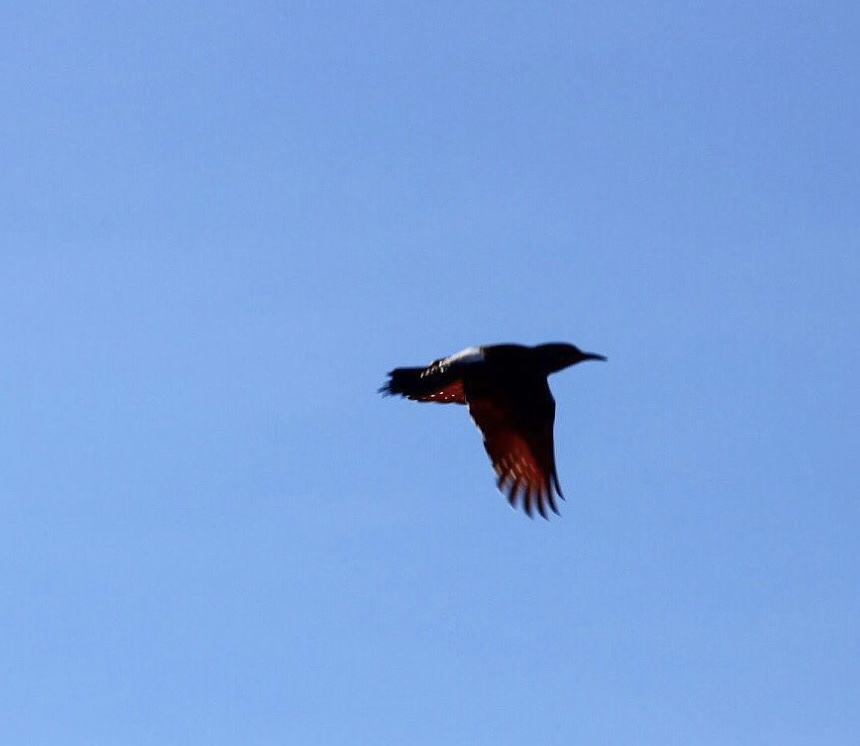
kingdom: Animalia
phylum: Chordata
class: Aves
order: Piciformes
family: Picidae
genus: Colaptes
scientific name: Colaptes auratus
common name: Northern flicker
